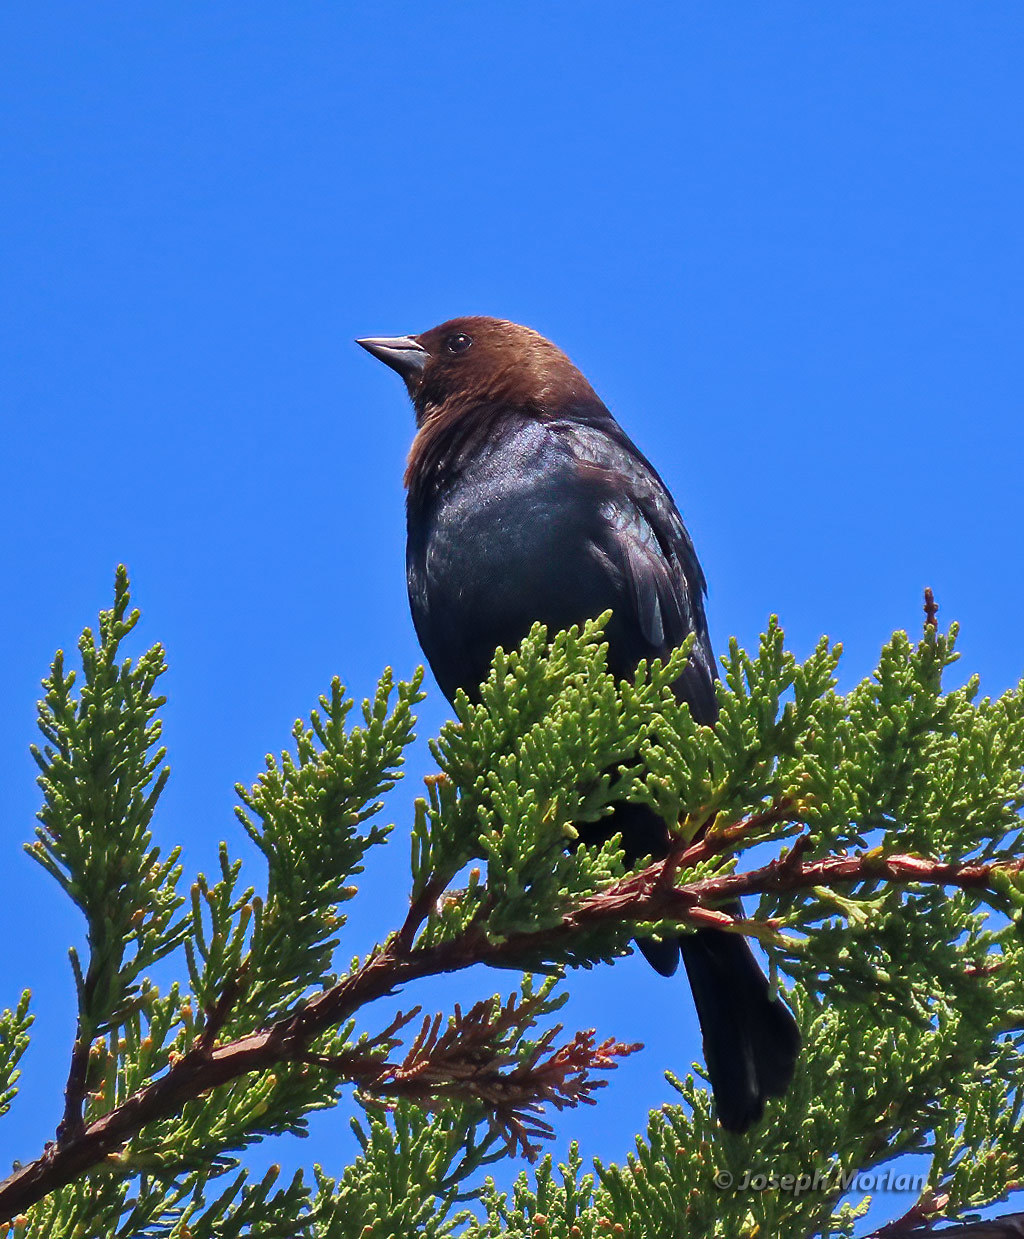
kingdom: Animalia
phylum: Chordata
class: Aves
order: Passeriformes
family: Icteridae
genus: Molothrus
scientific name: Molothrus ater
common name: Brown-headed cowbird
